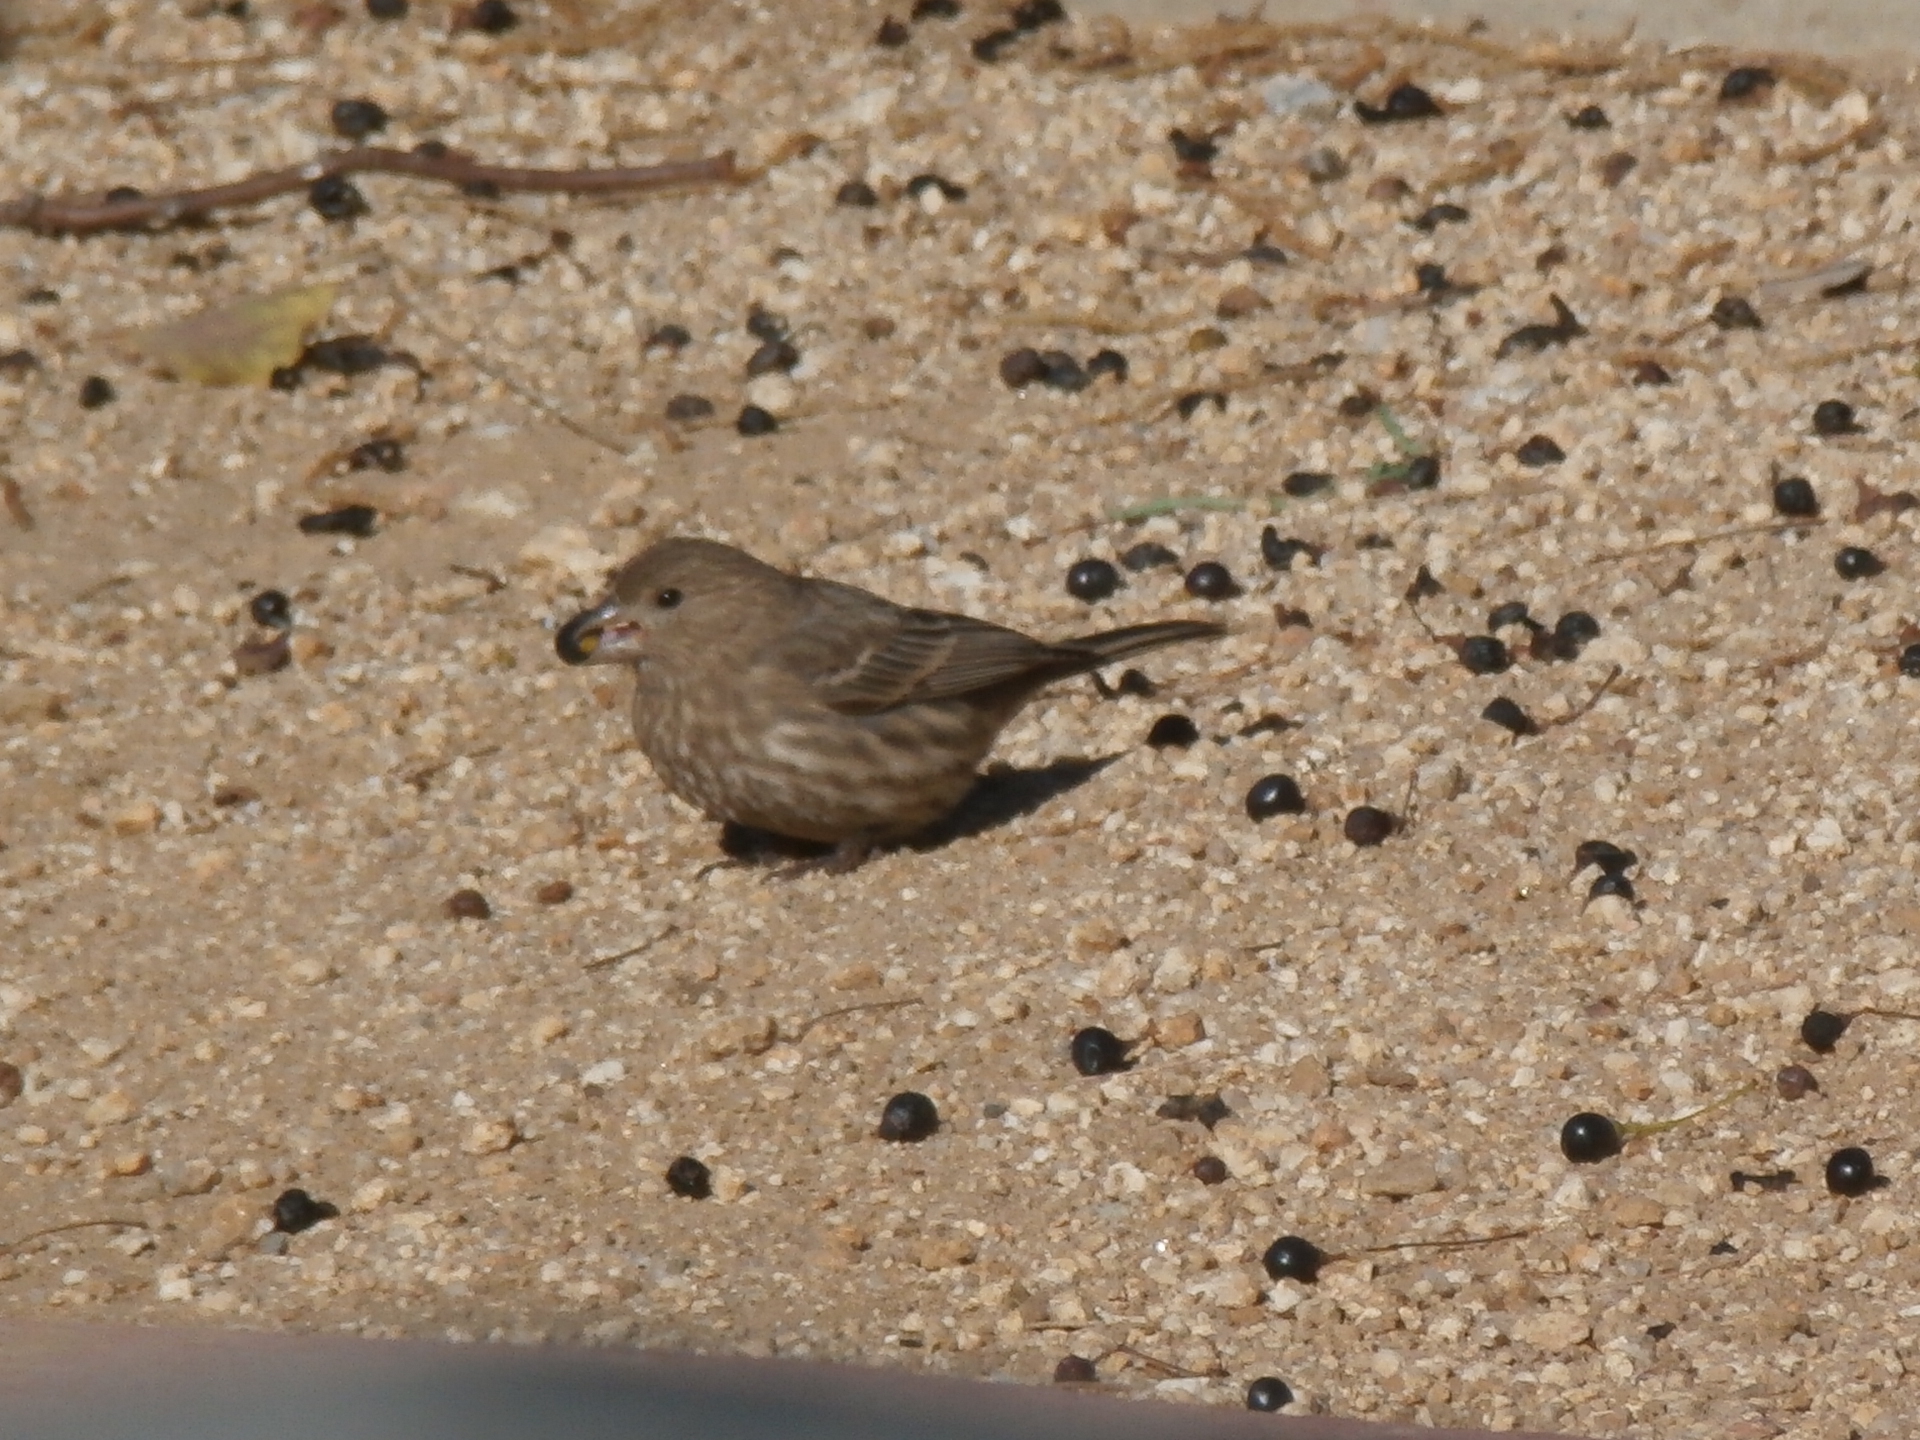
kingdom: Animalia
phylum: Chordata
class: Aves
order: Passeriformes
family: Fringillidae
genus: Haemorhous
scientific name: Haemorhous mexicanus
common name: House finch
